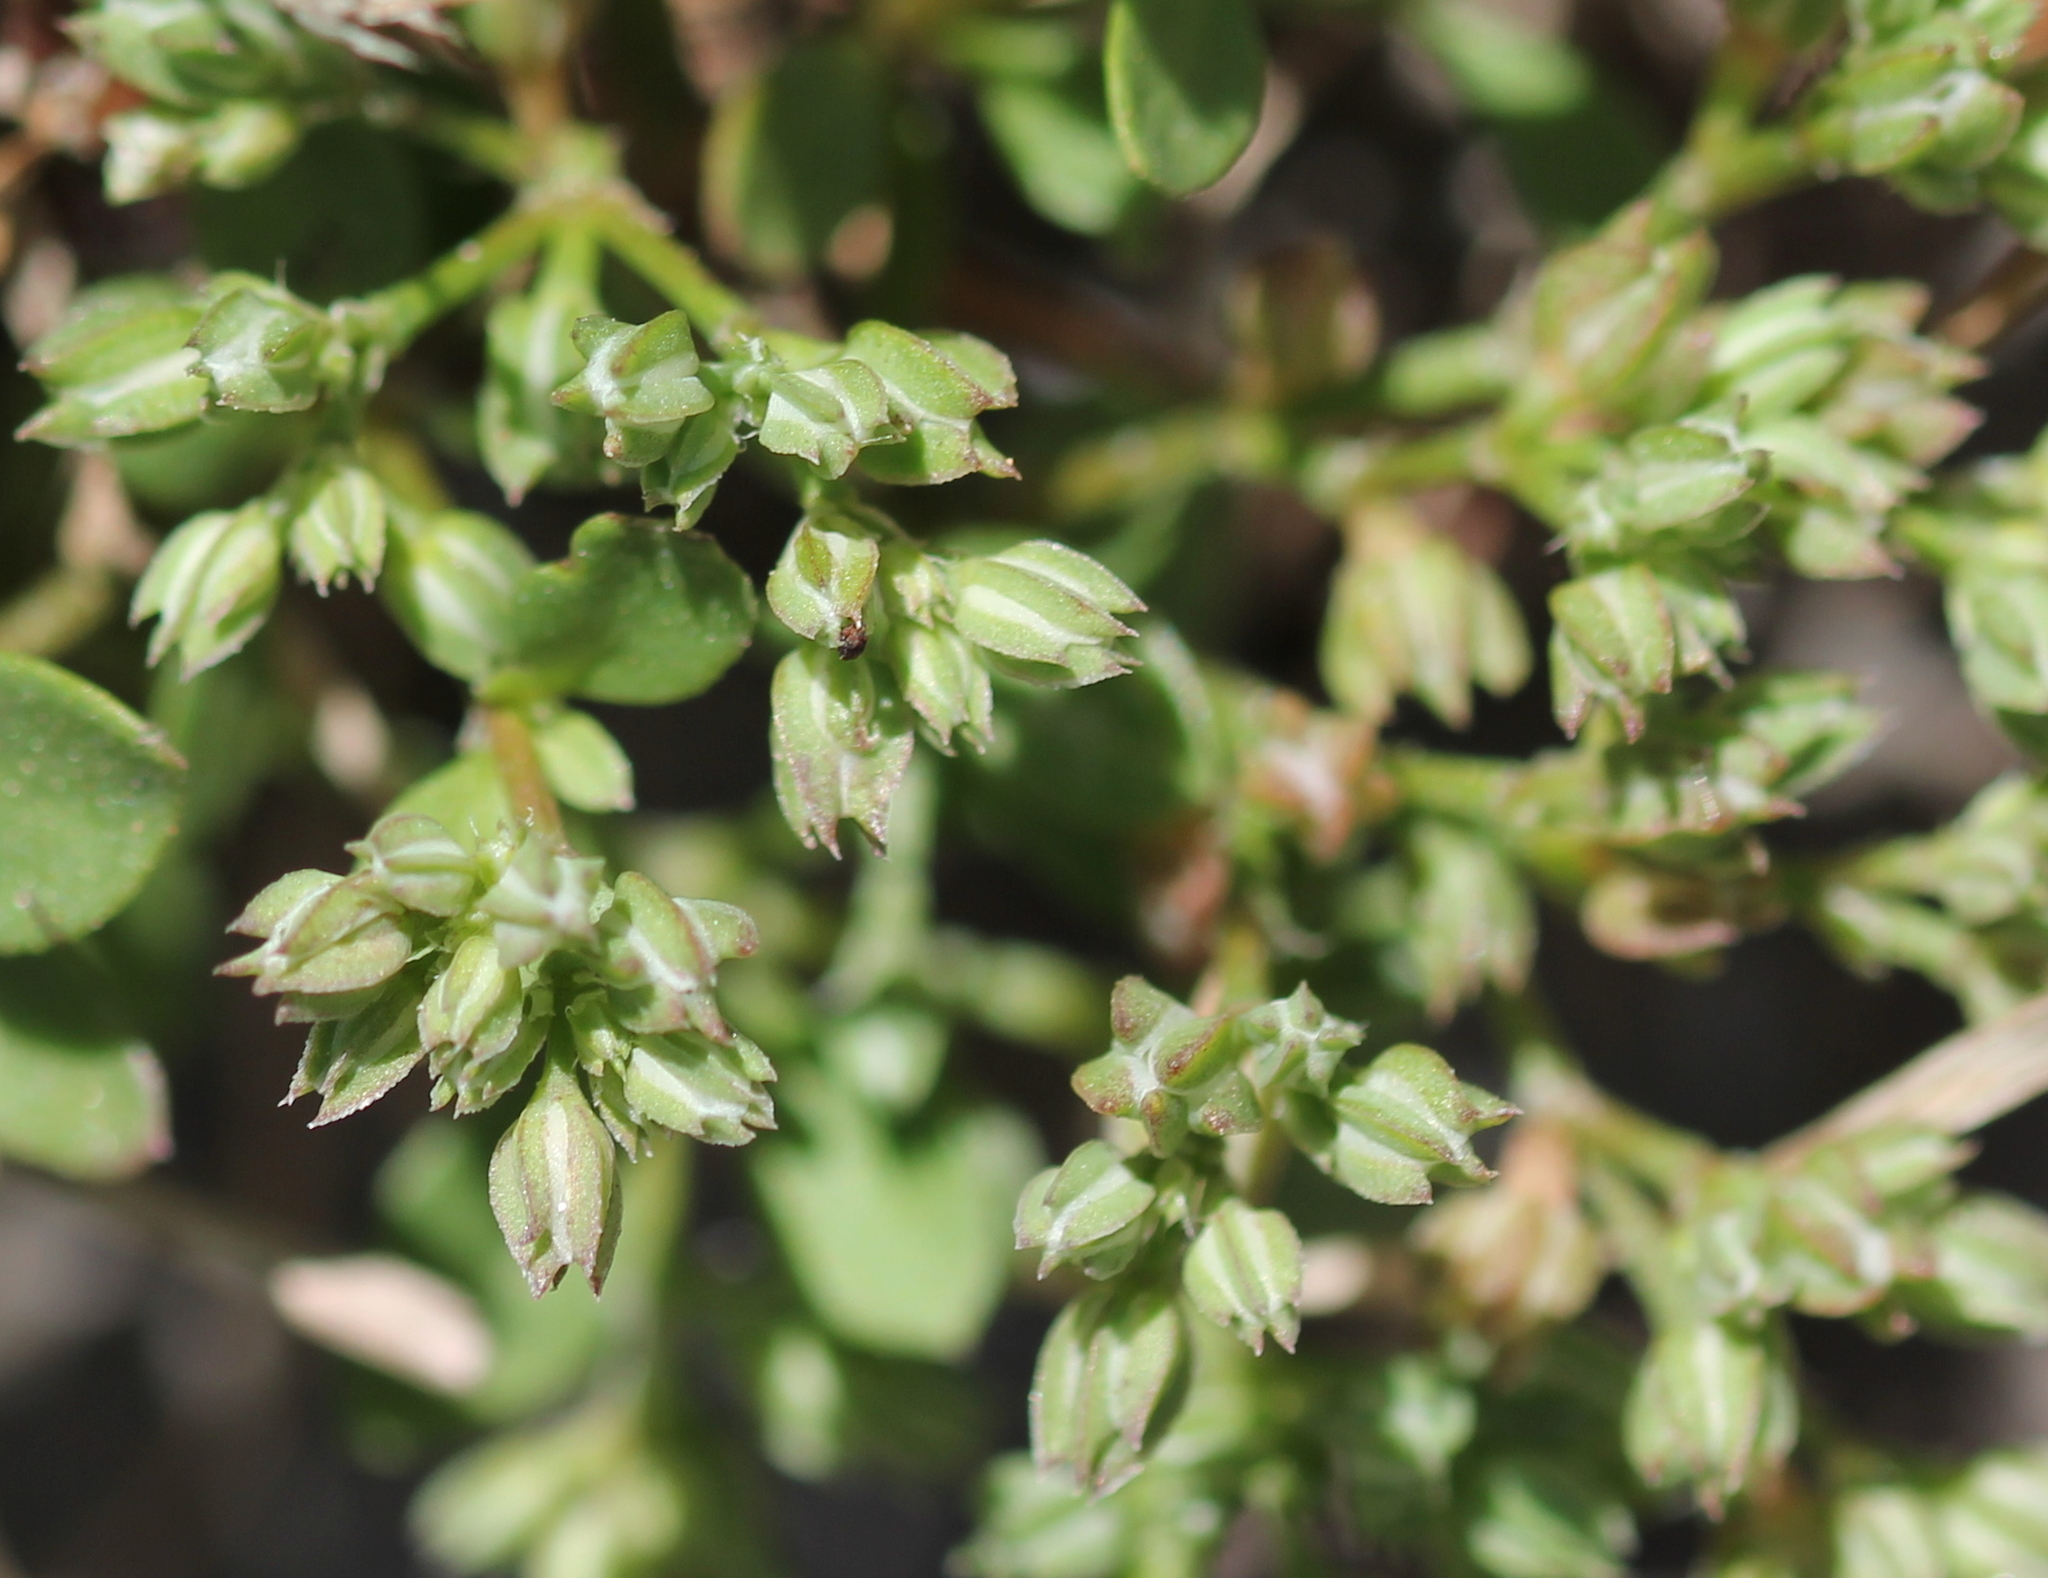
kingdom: Plantae
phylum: Tracheophyta
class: Magnoliopsida
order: Caryophyllales
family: Caryophyllaceae
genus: Polycarpon
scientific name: Polycarpon tetraphyllum
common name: Four-leaved all-seed
